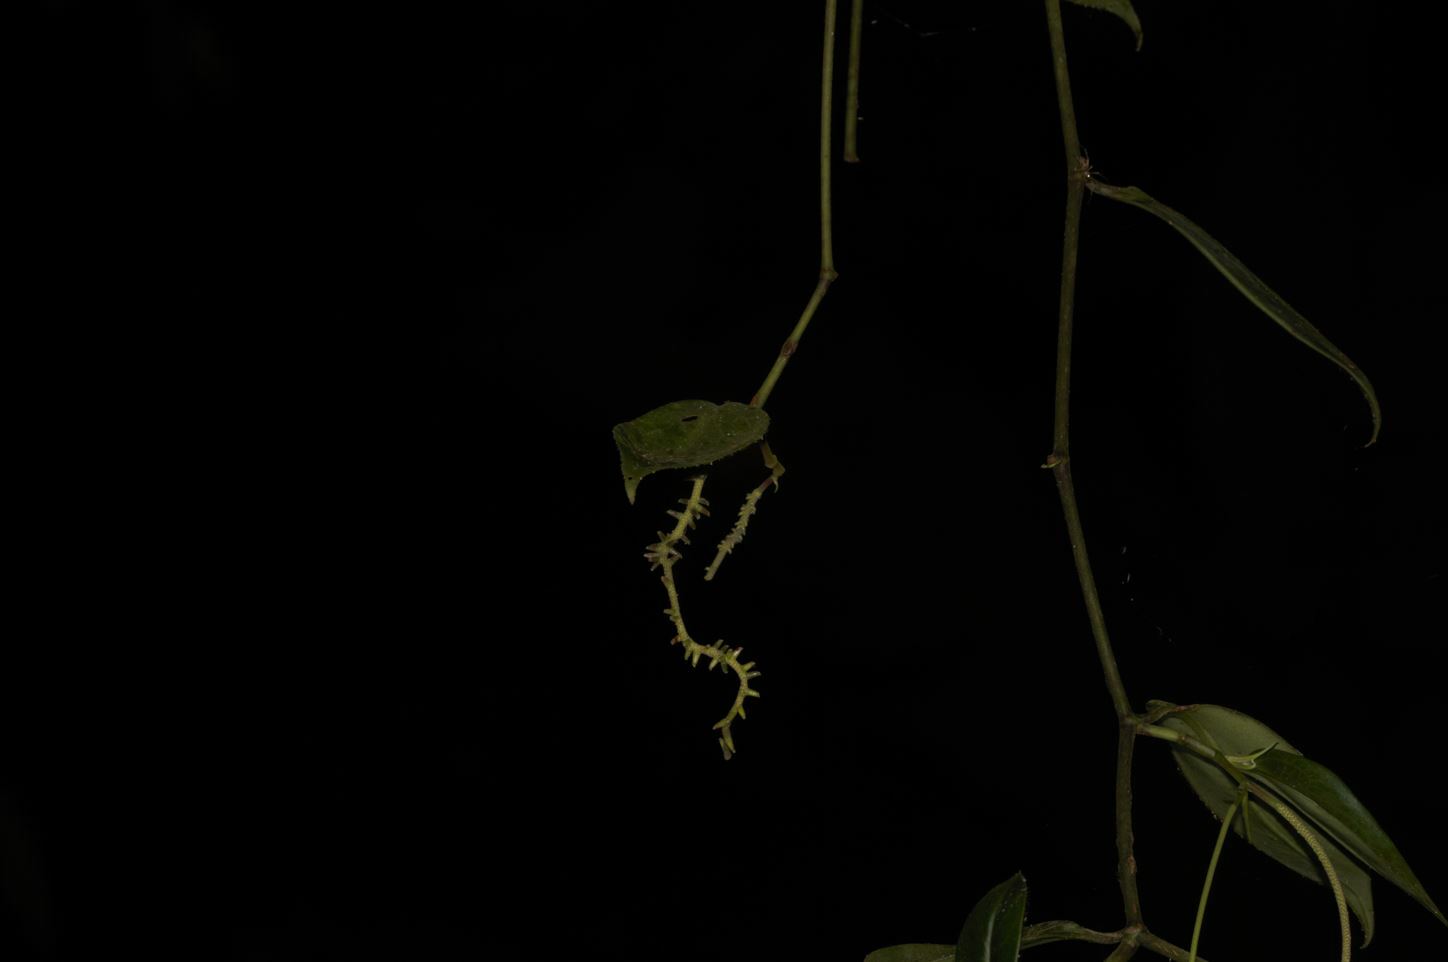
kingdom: Plantae
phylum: Tracheophyta
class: Magnoliopsida
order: Piperales
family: Piperaceae
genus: Peperomia
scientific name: Peperomia macrostachyos
